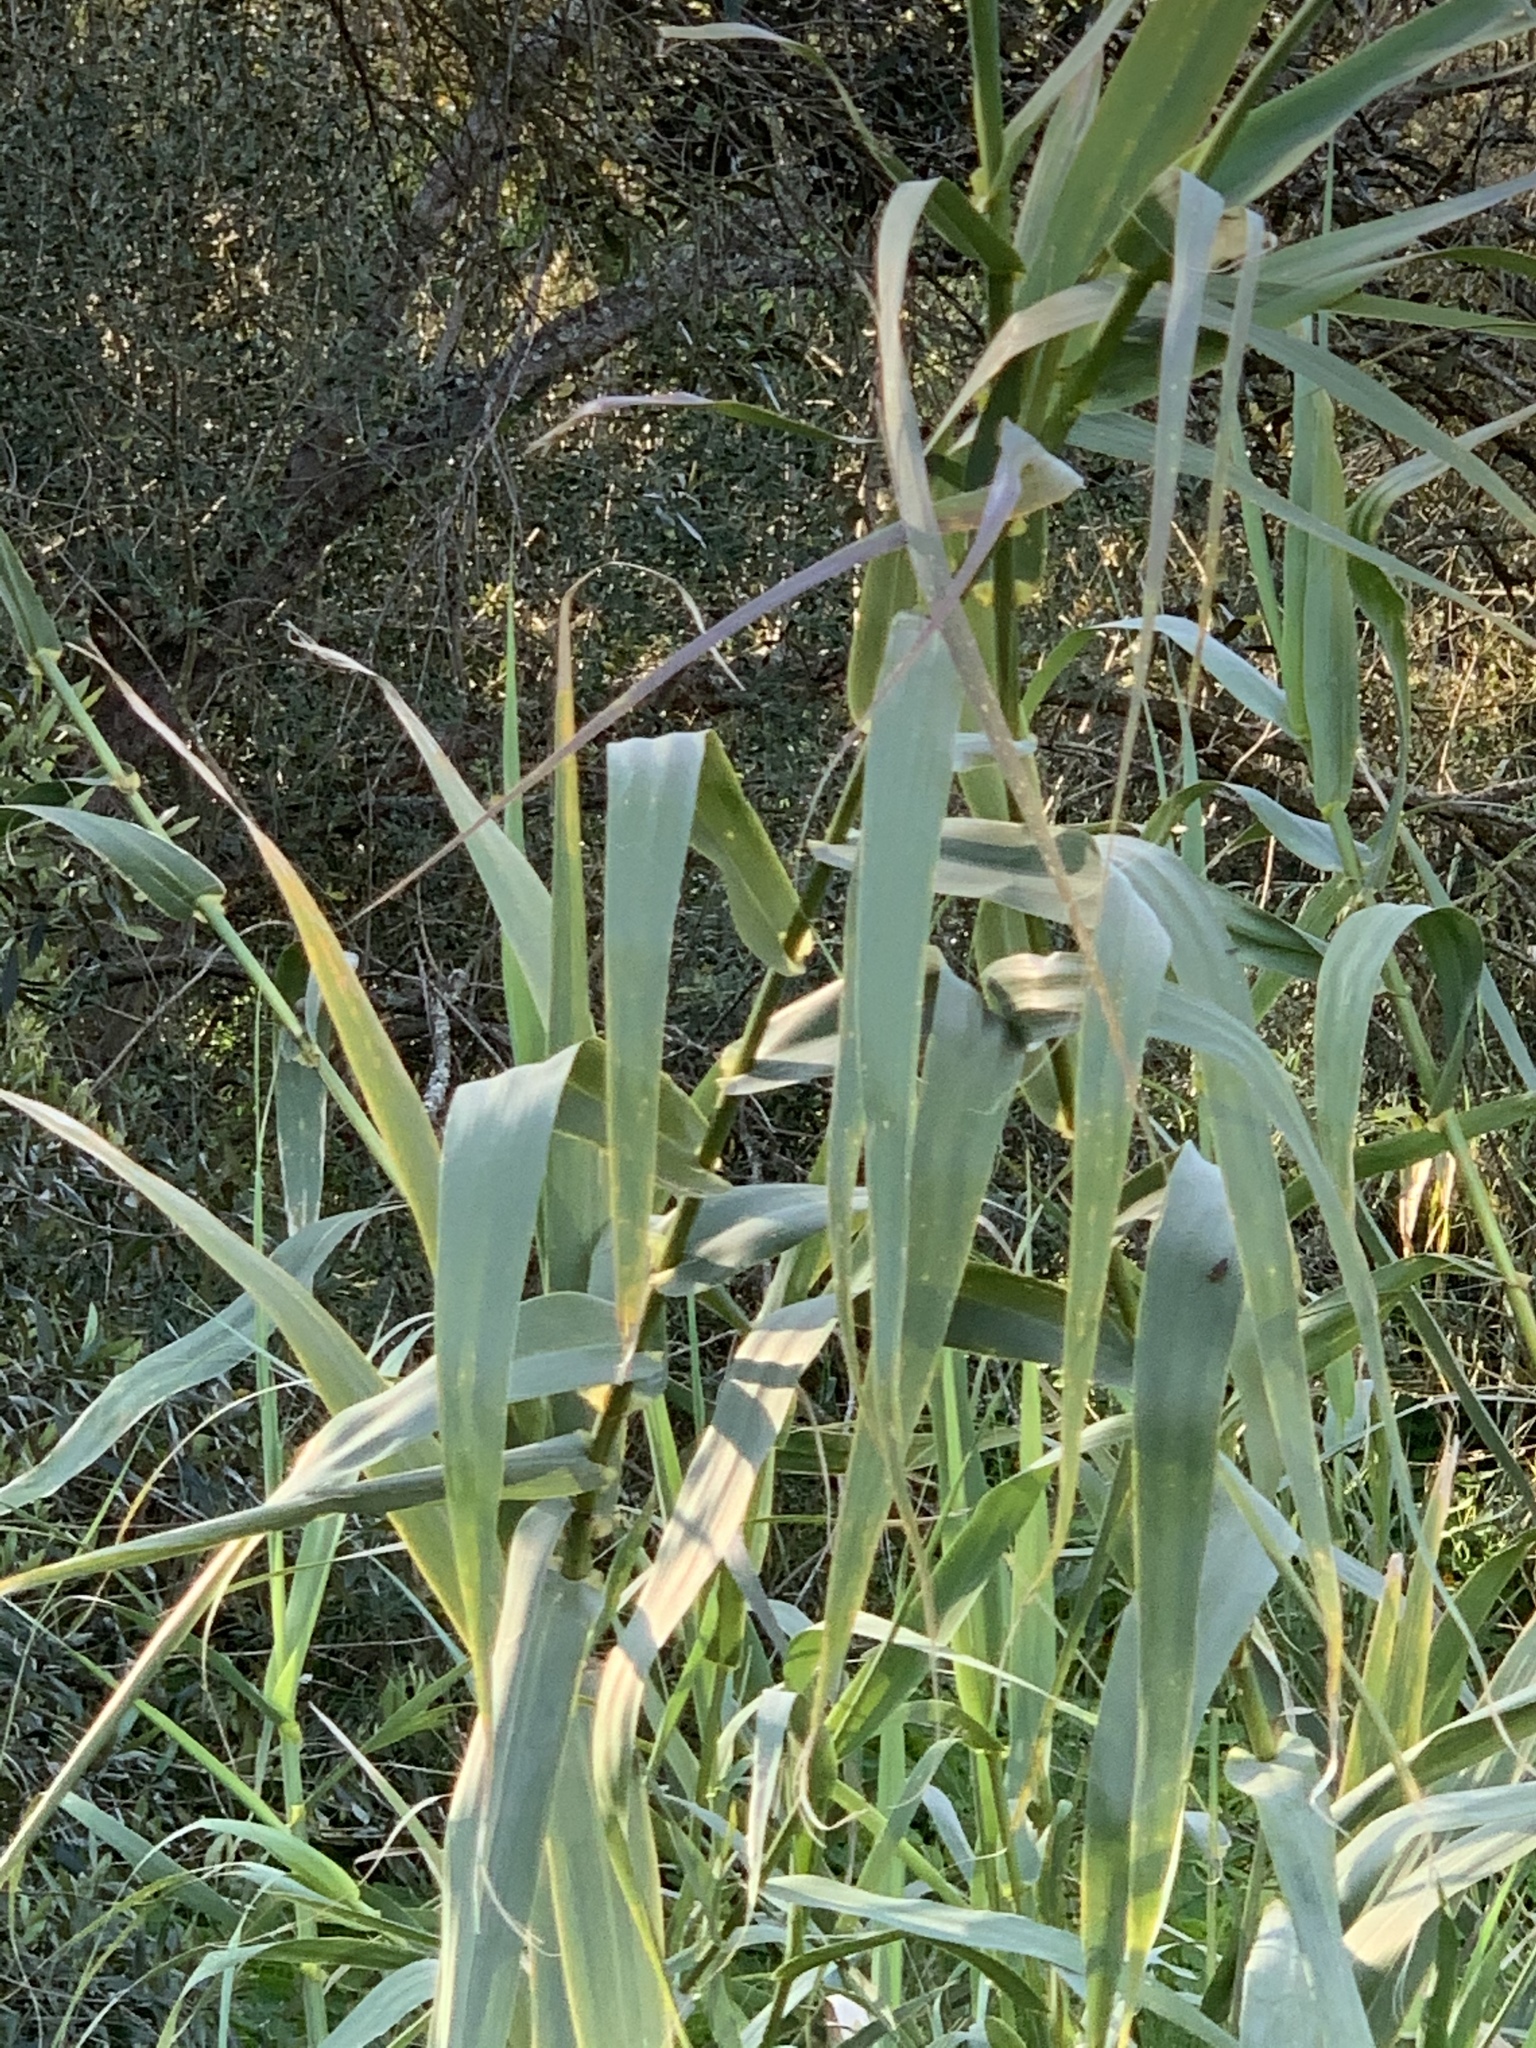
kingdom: Plantae
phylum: Tracheophyta
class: Liliopsida
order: Poales
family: Poaceae
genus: Arundo
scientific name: Arundo donax
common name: Giant reed
